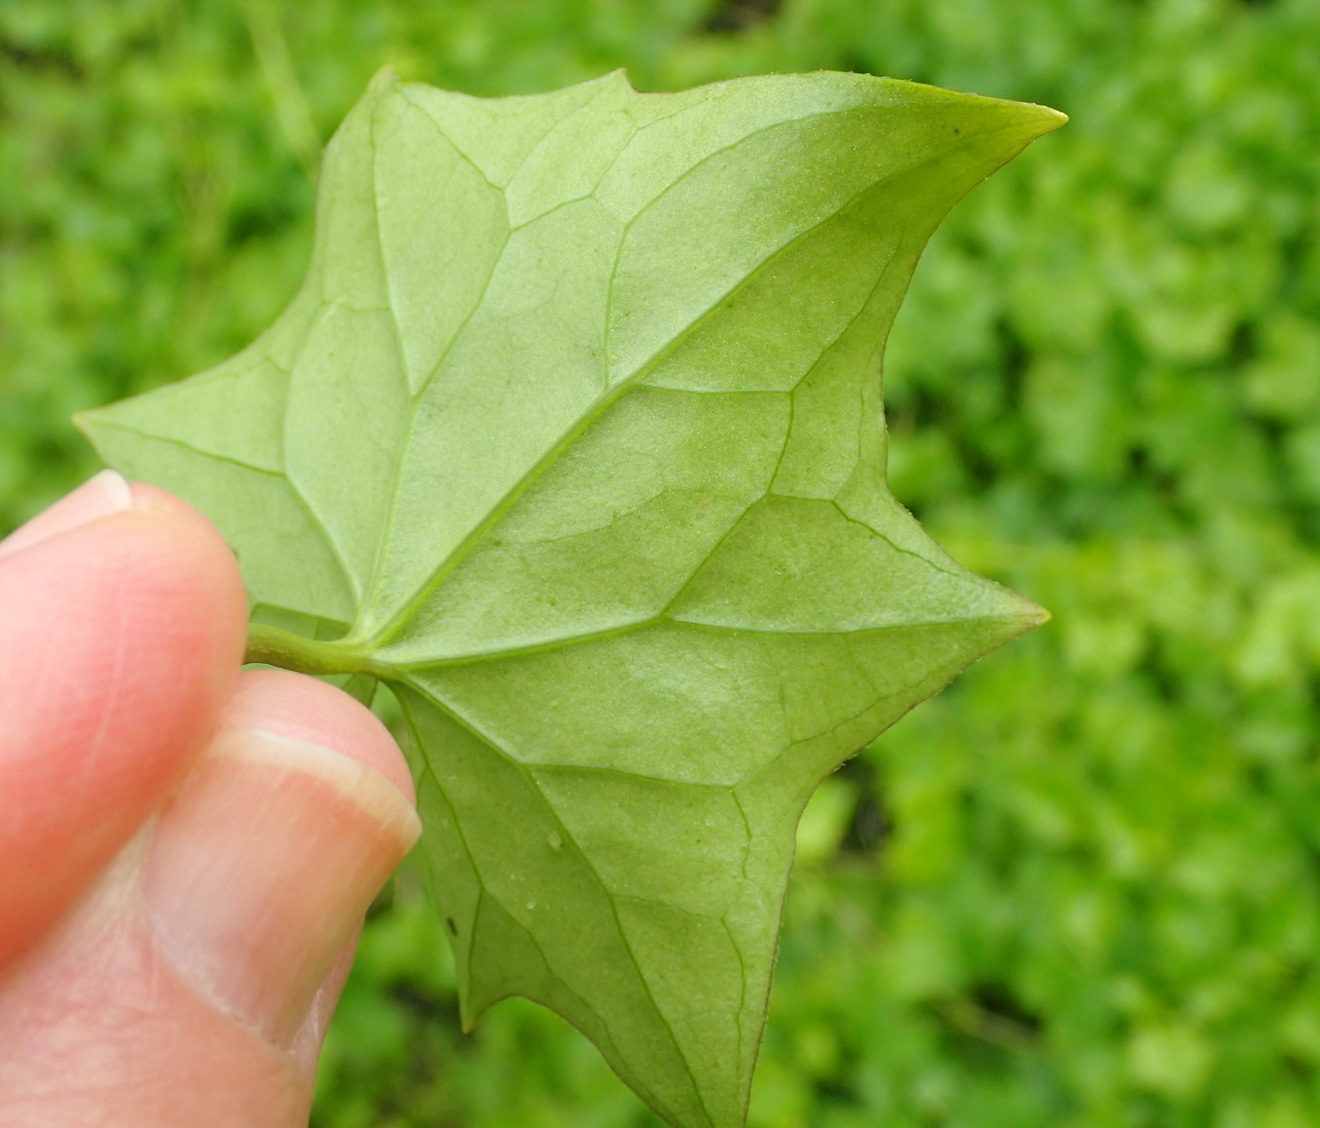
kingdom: Plantae
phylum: Tracheophyta
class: Magnoliopsida
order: Asterales
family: Asteraceae
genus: Senecio
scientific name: Senecio tamoides
